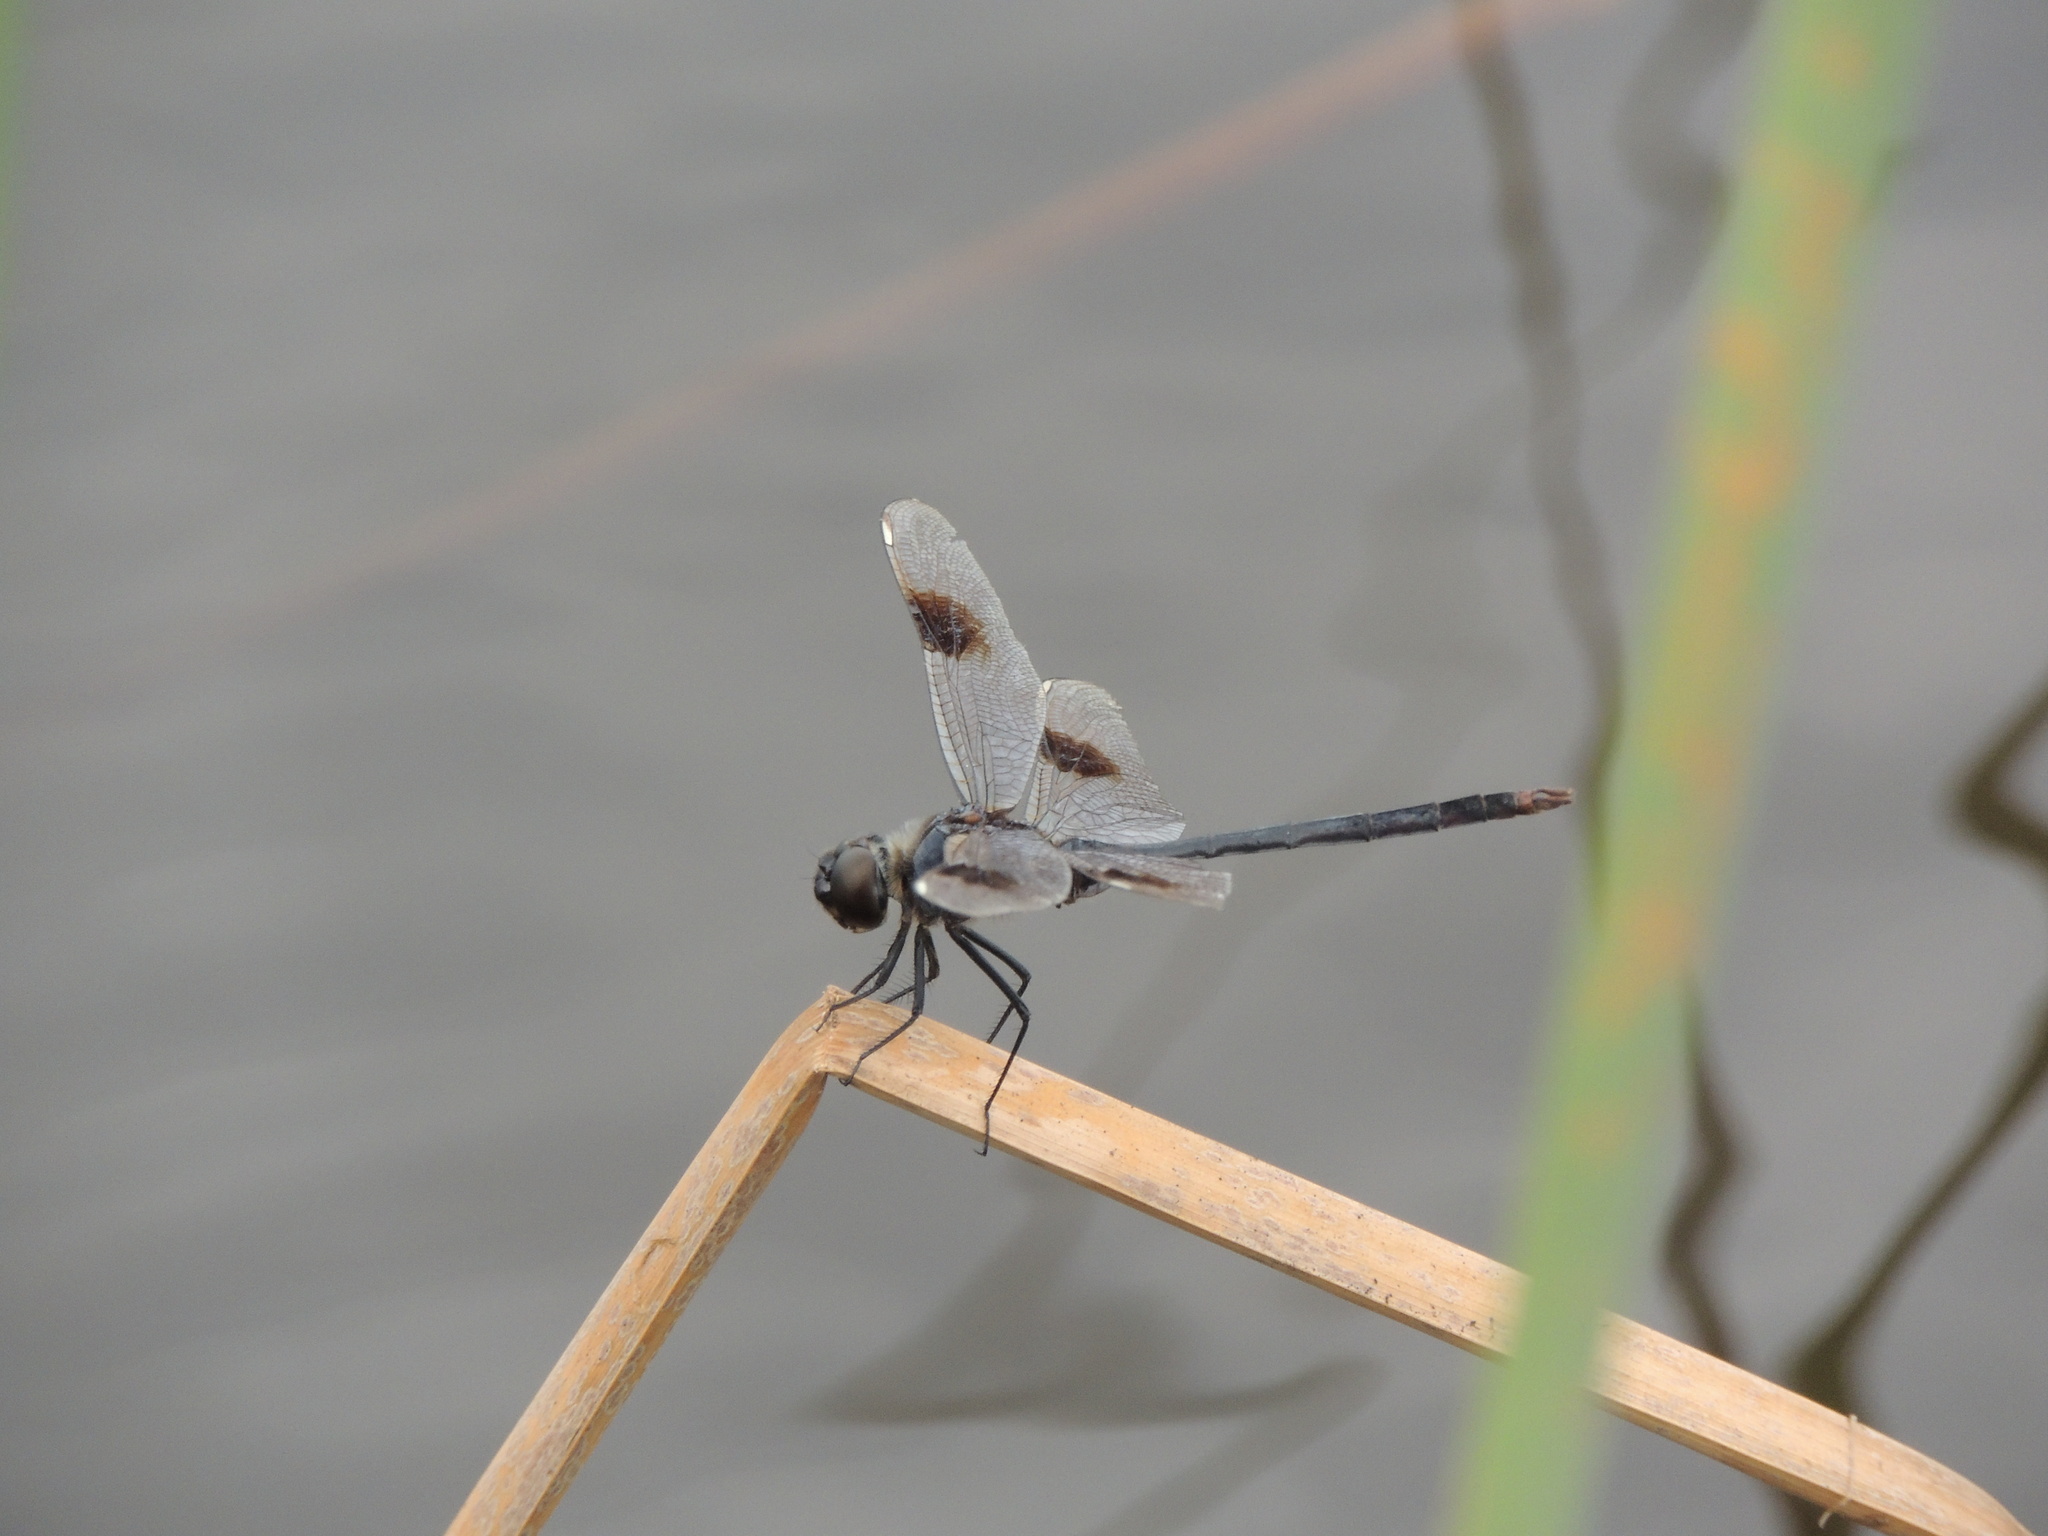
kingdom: Animalia
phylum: Arthropoda
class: Insecta
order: Odonata
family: Libellulidae
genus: Brachymesia
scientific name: Brachymesia gravida
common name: Four-spotted pennant
